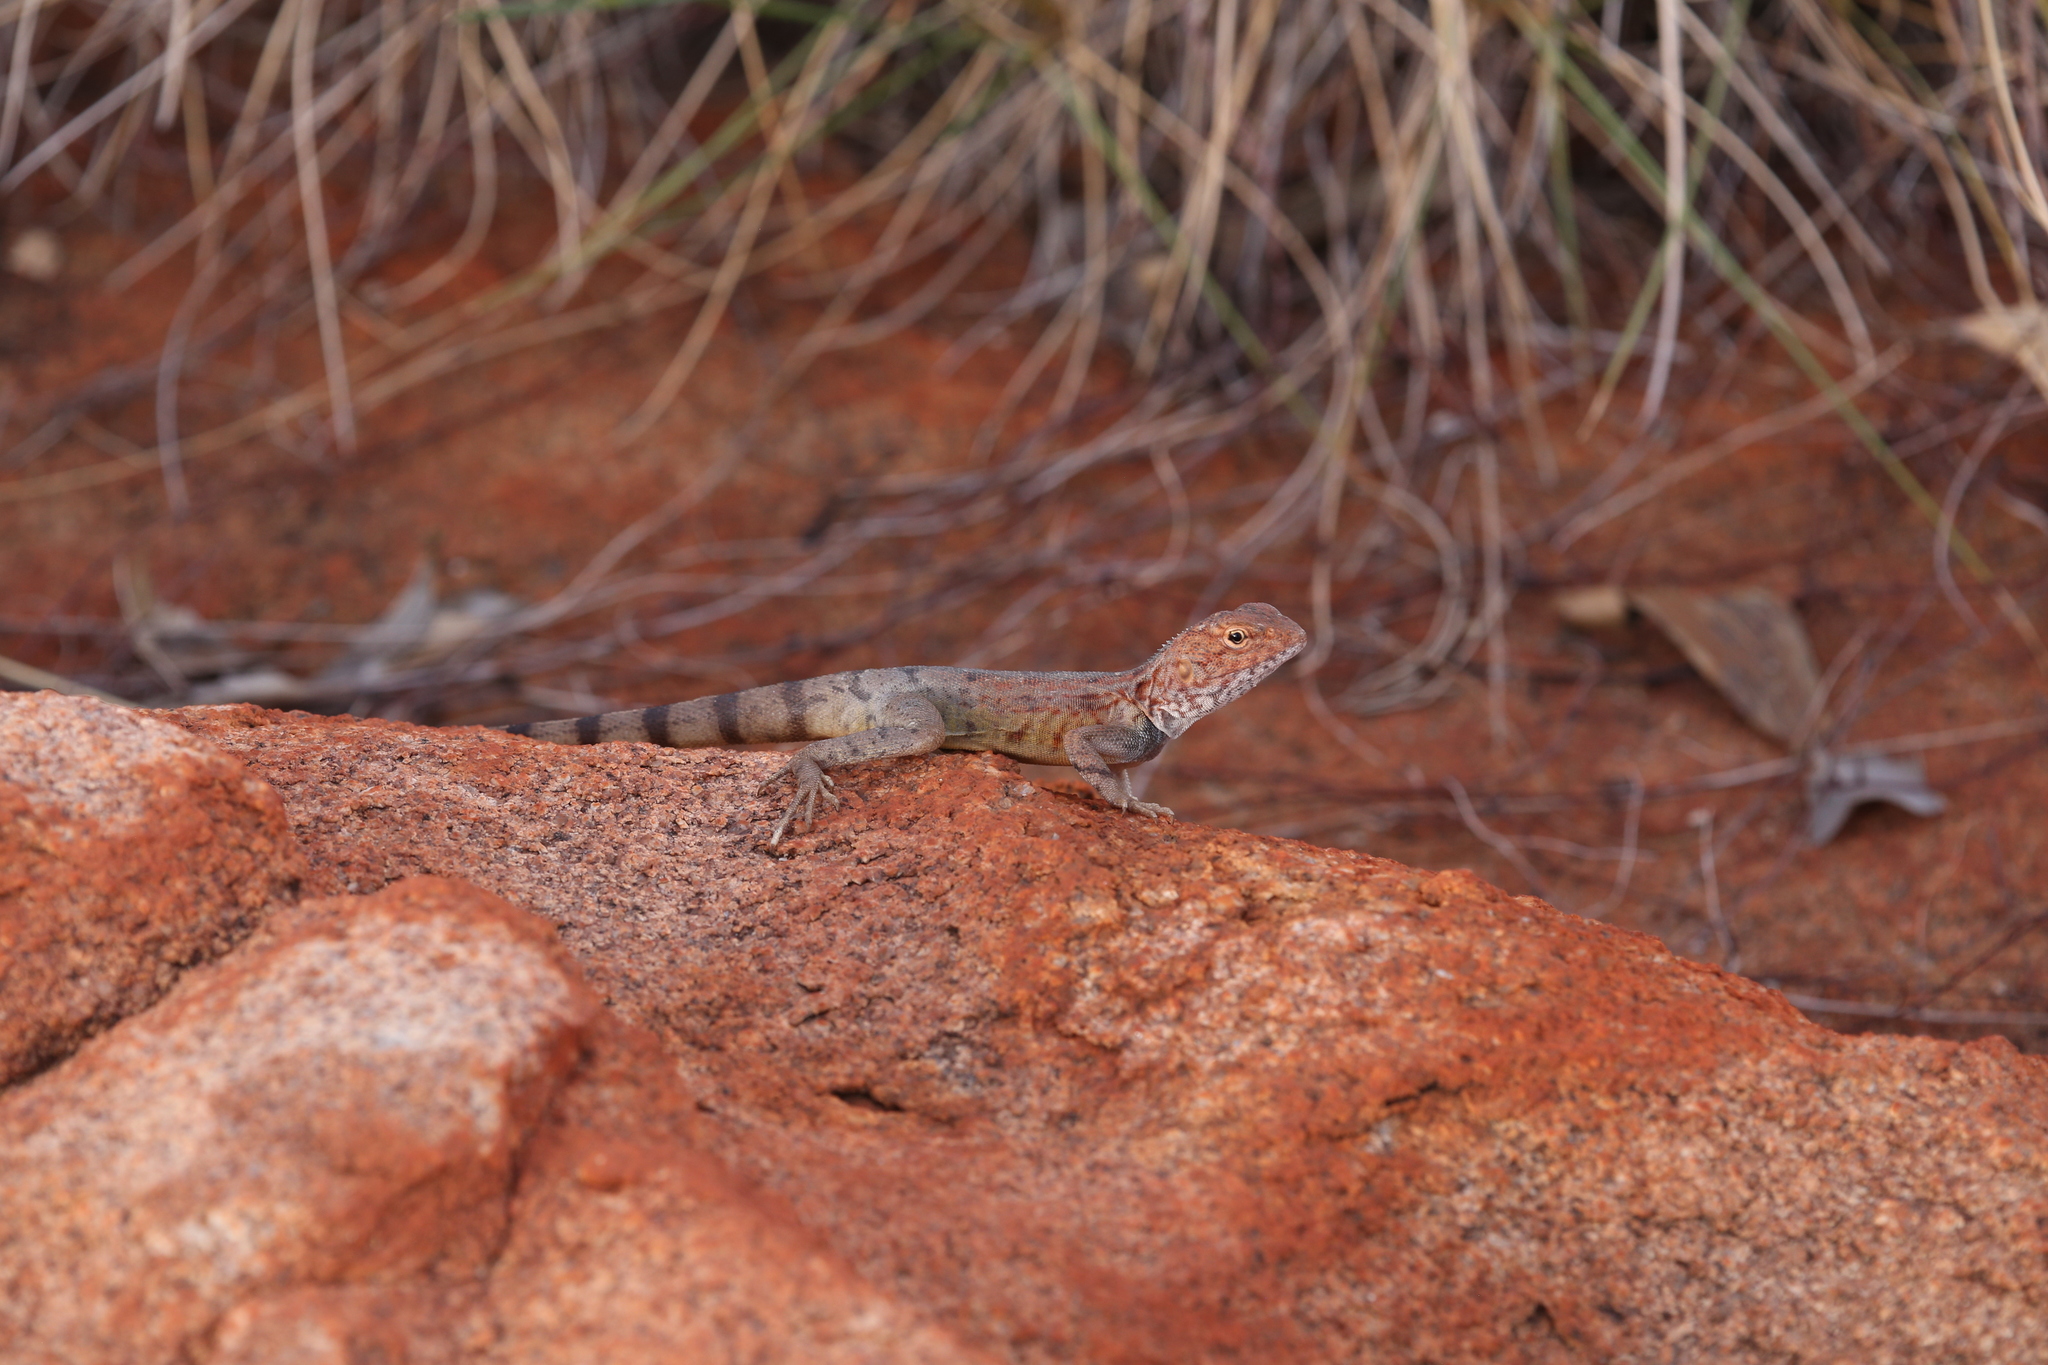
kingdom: Animalia
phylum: Chordata
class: Squamata
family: Agamidae
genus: Ctenophorus
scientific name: Ctenophorus caudicinctus
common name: Ring-tailed dragon
